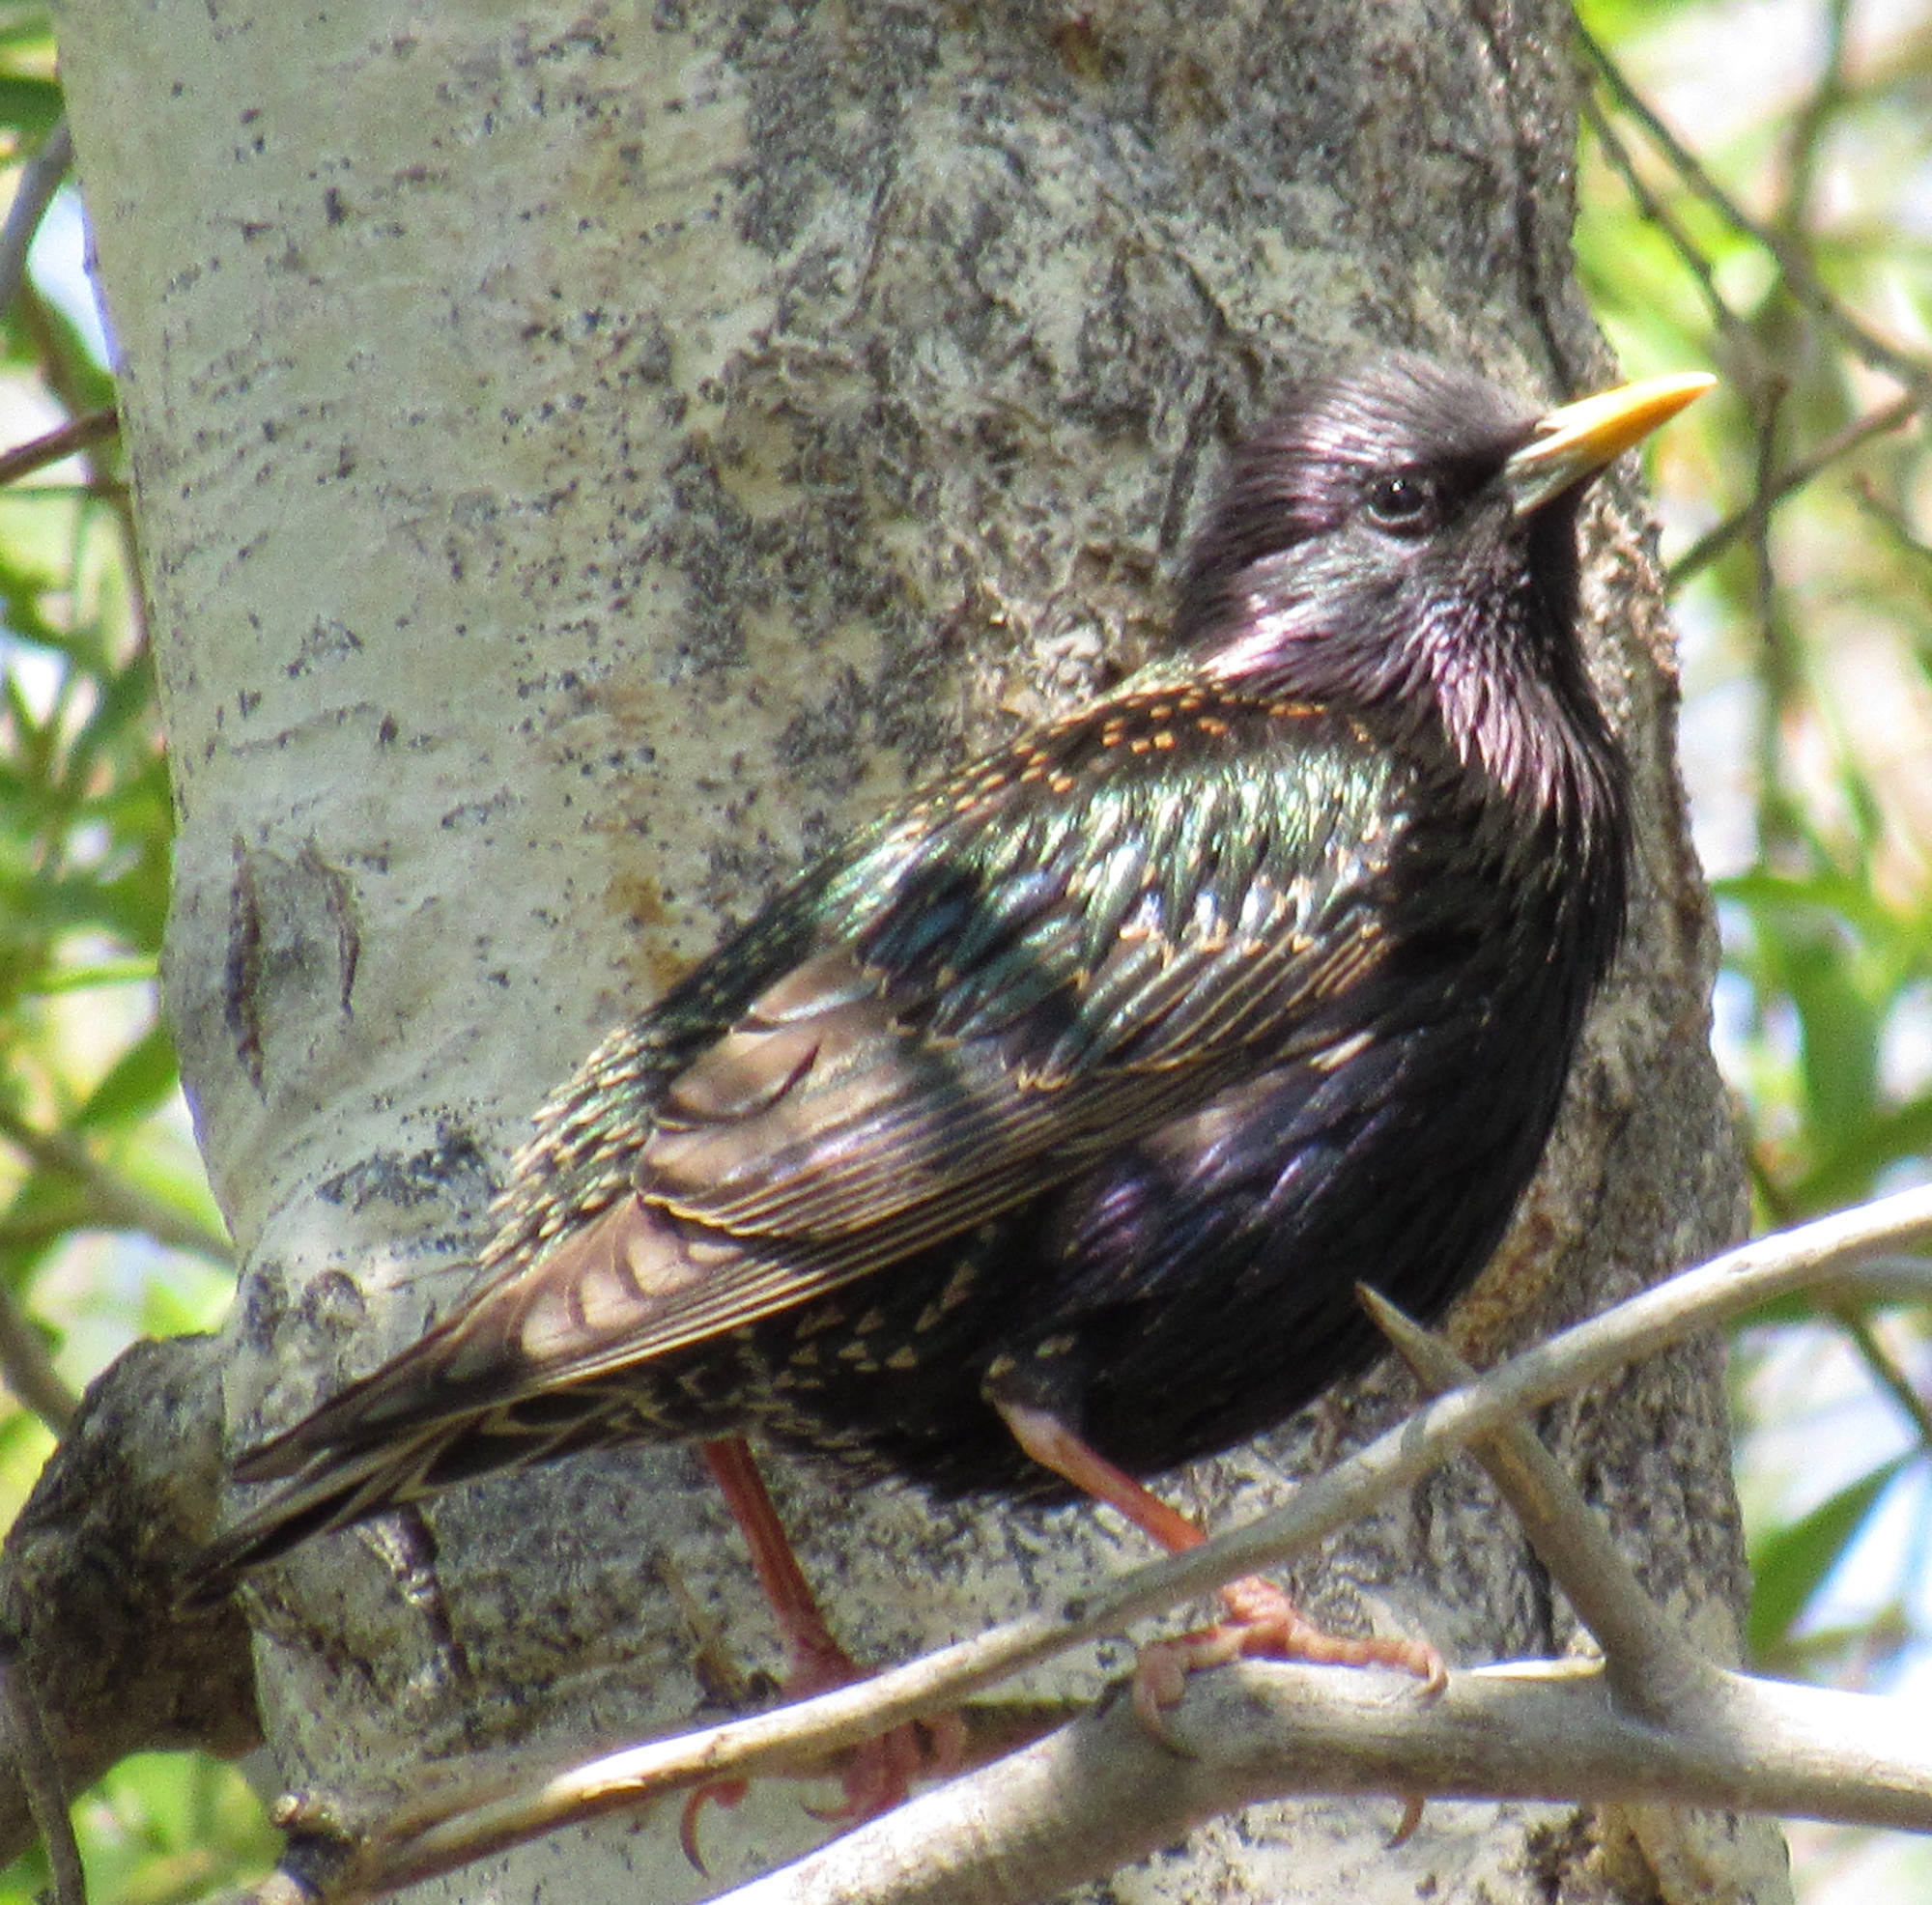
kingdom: Animalia
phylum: Chordata
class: Aves
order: Passeriformes
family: Sturnidae
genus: Sturnus
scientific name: Sturnus vulgaris
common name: Common starling
